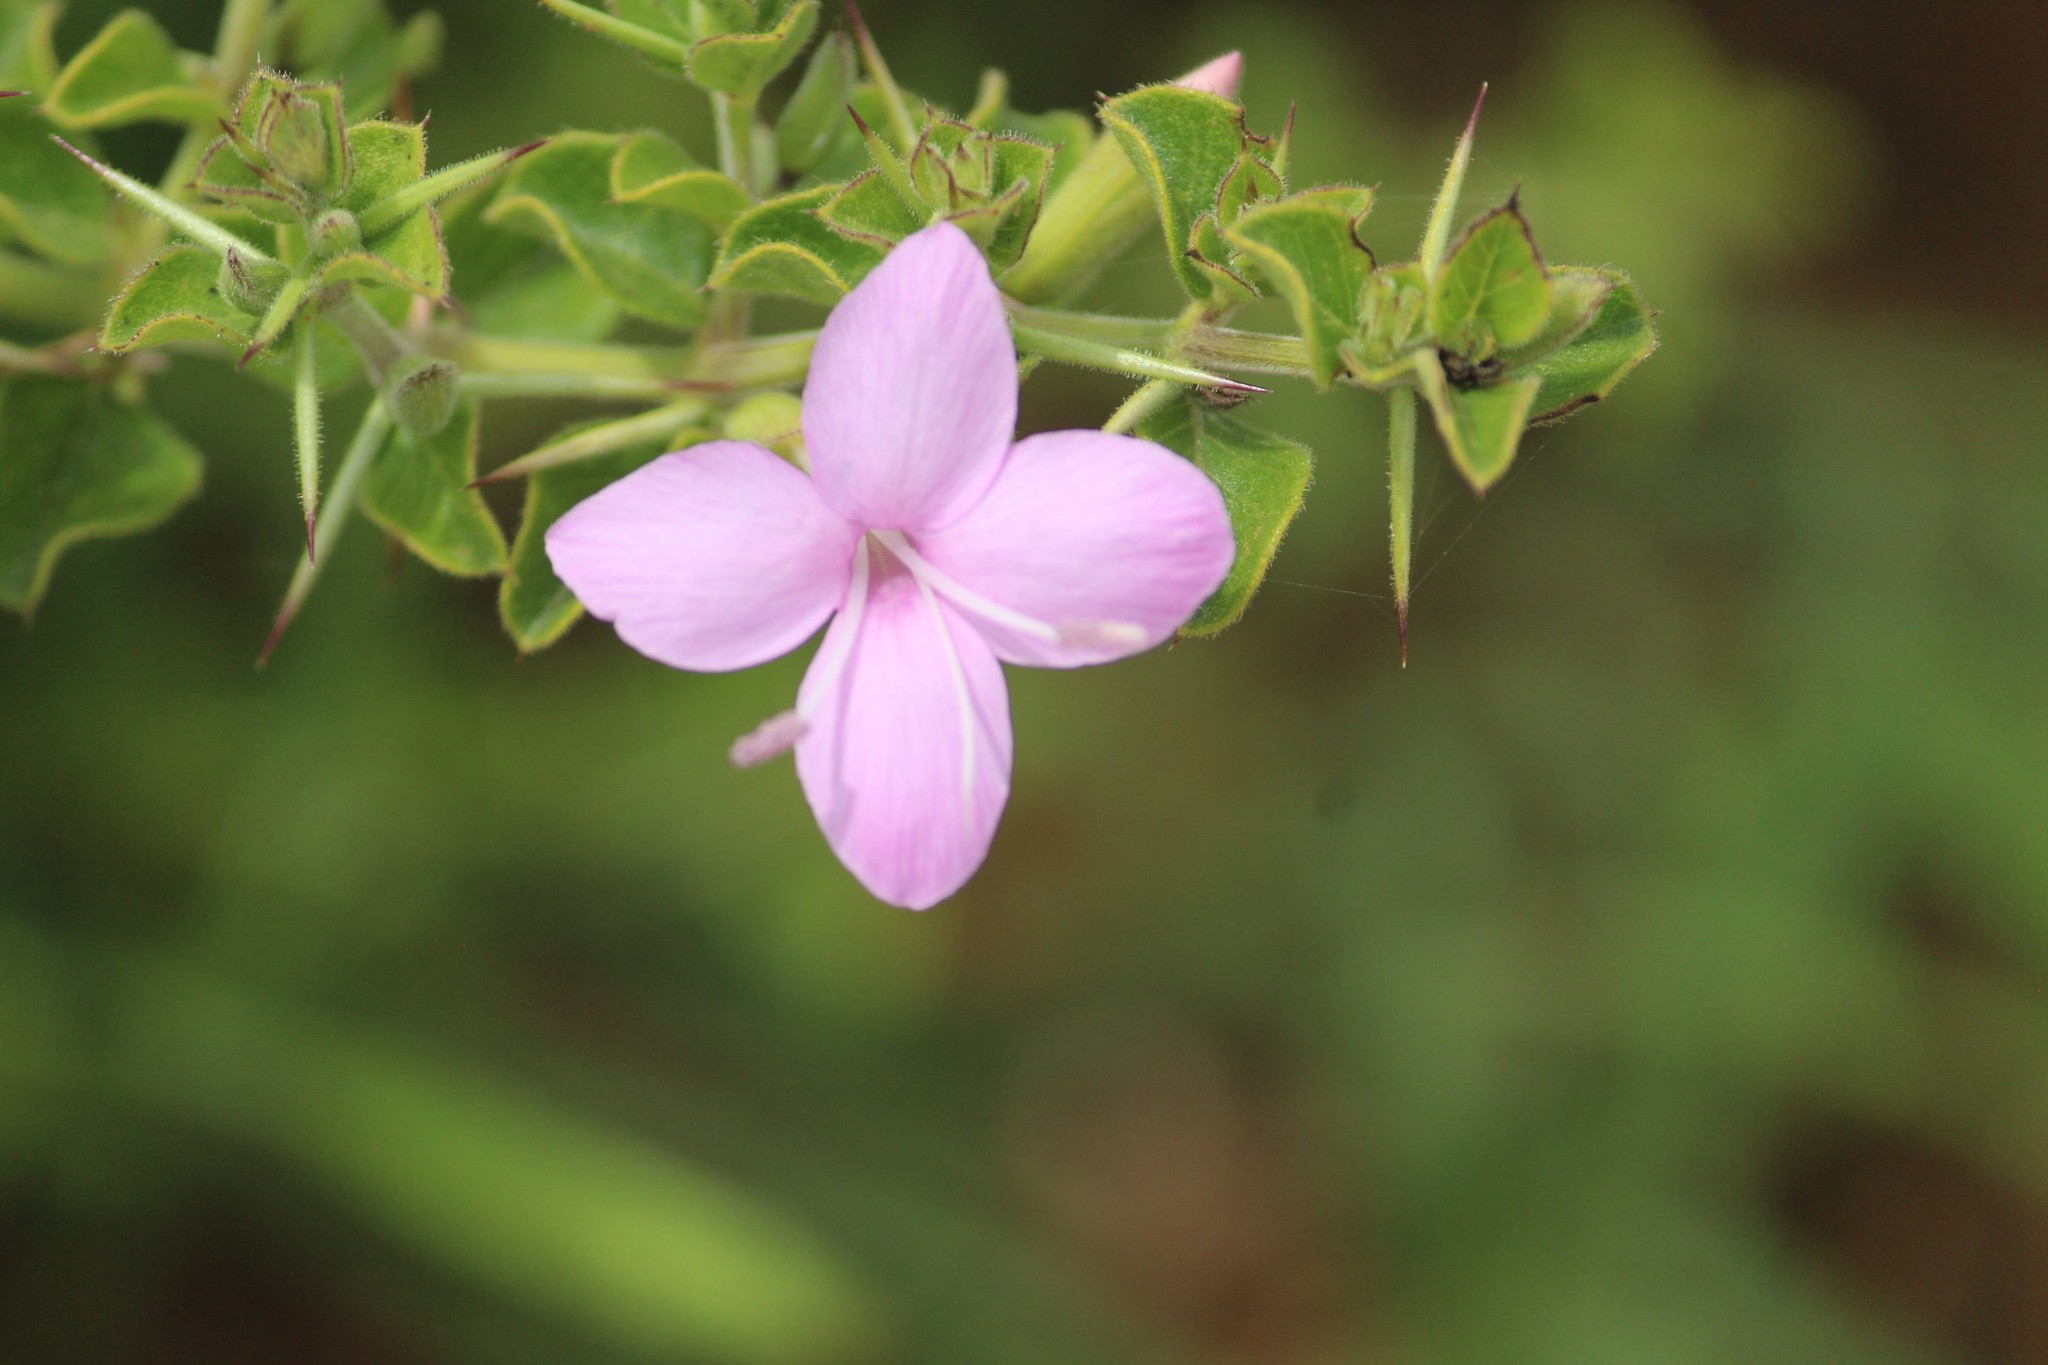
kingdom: Plantae
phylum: Tracheophyta
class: Magnoliopsida
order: Lamiales
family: Acanthaceae
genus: Barleria
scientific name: Barleria mysorensis
